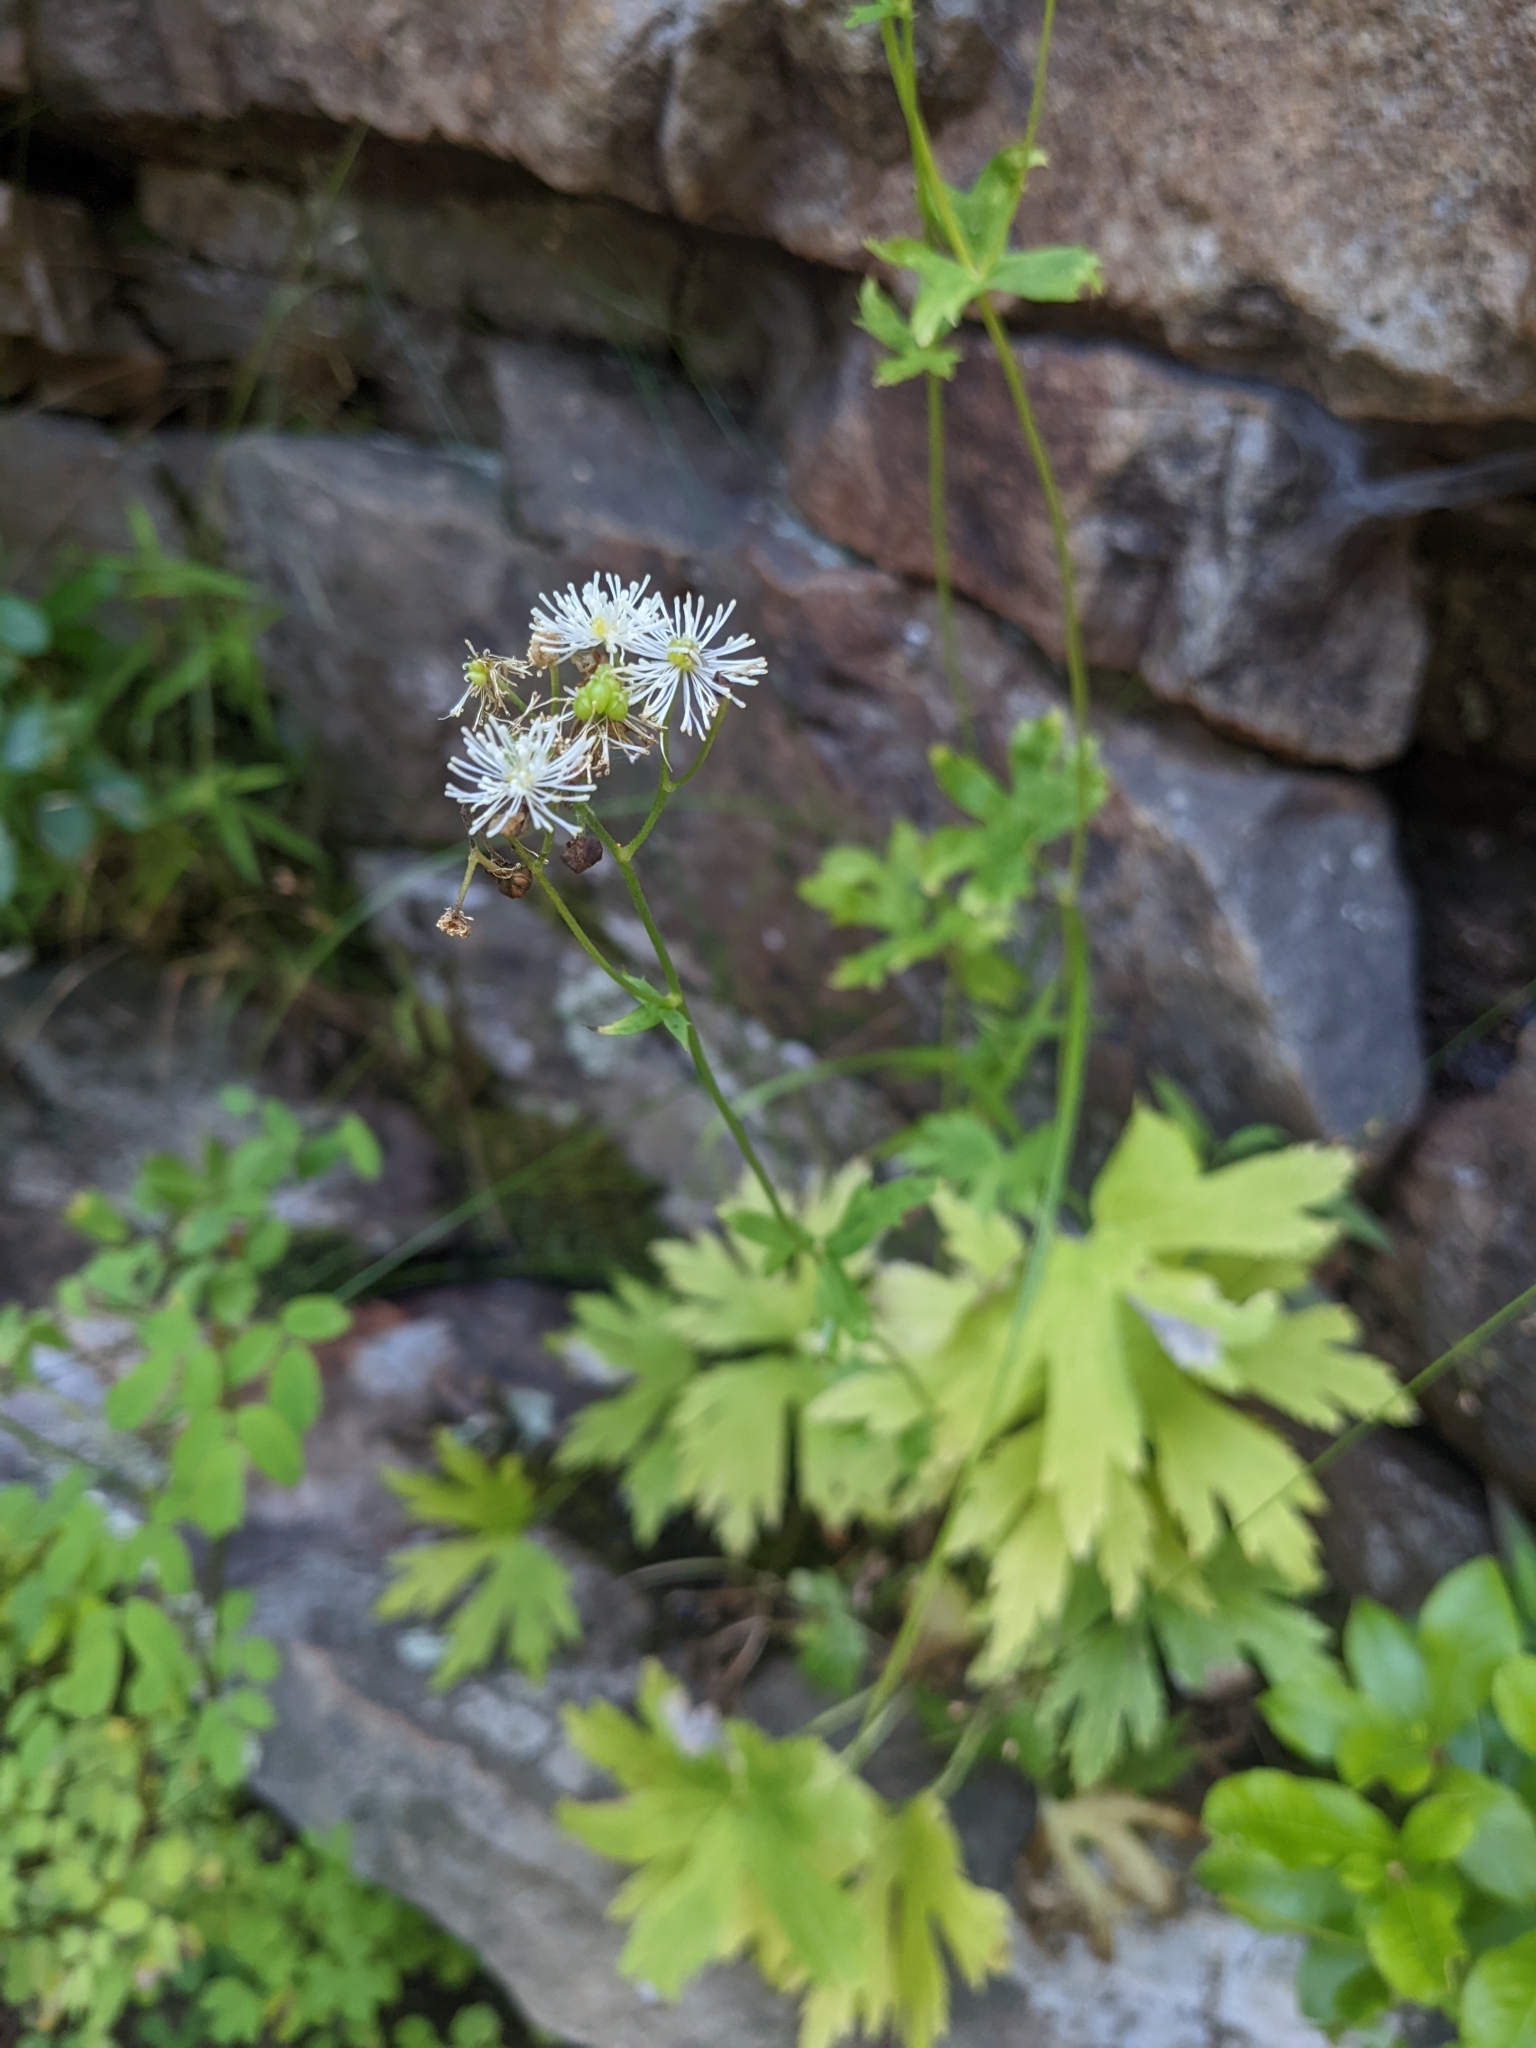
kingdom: Plantae
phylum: Tracheophyta
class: Magnoliopsida
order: Ranunculales
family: Ranunculaceae
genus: Trautvetteria
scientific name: Trautvetteria carolinensis
